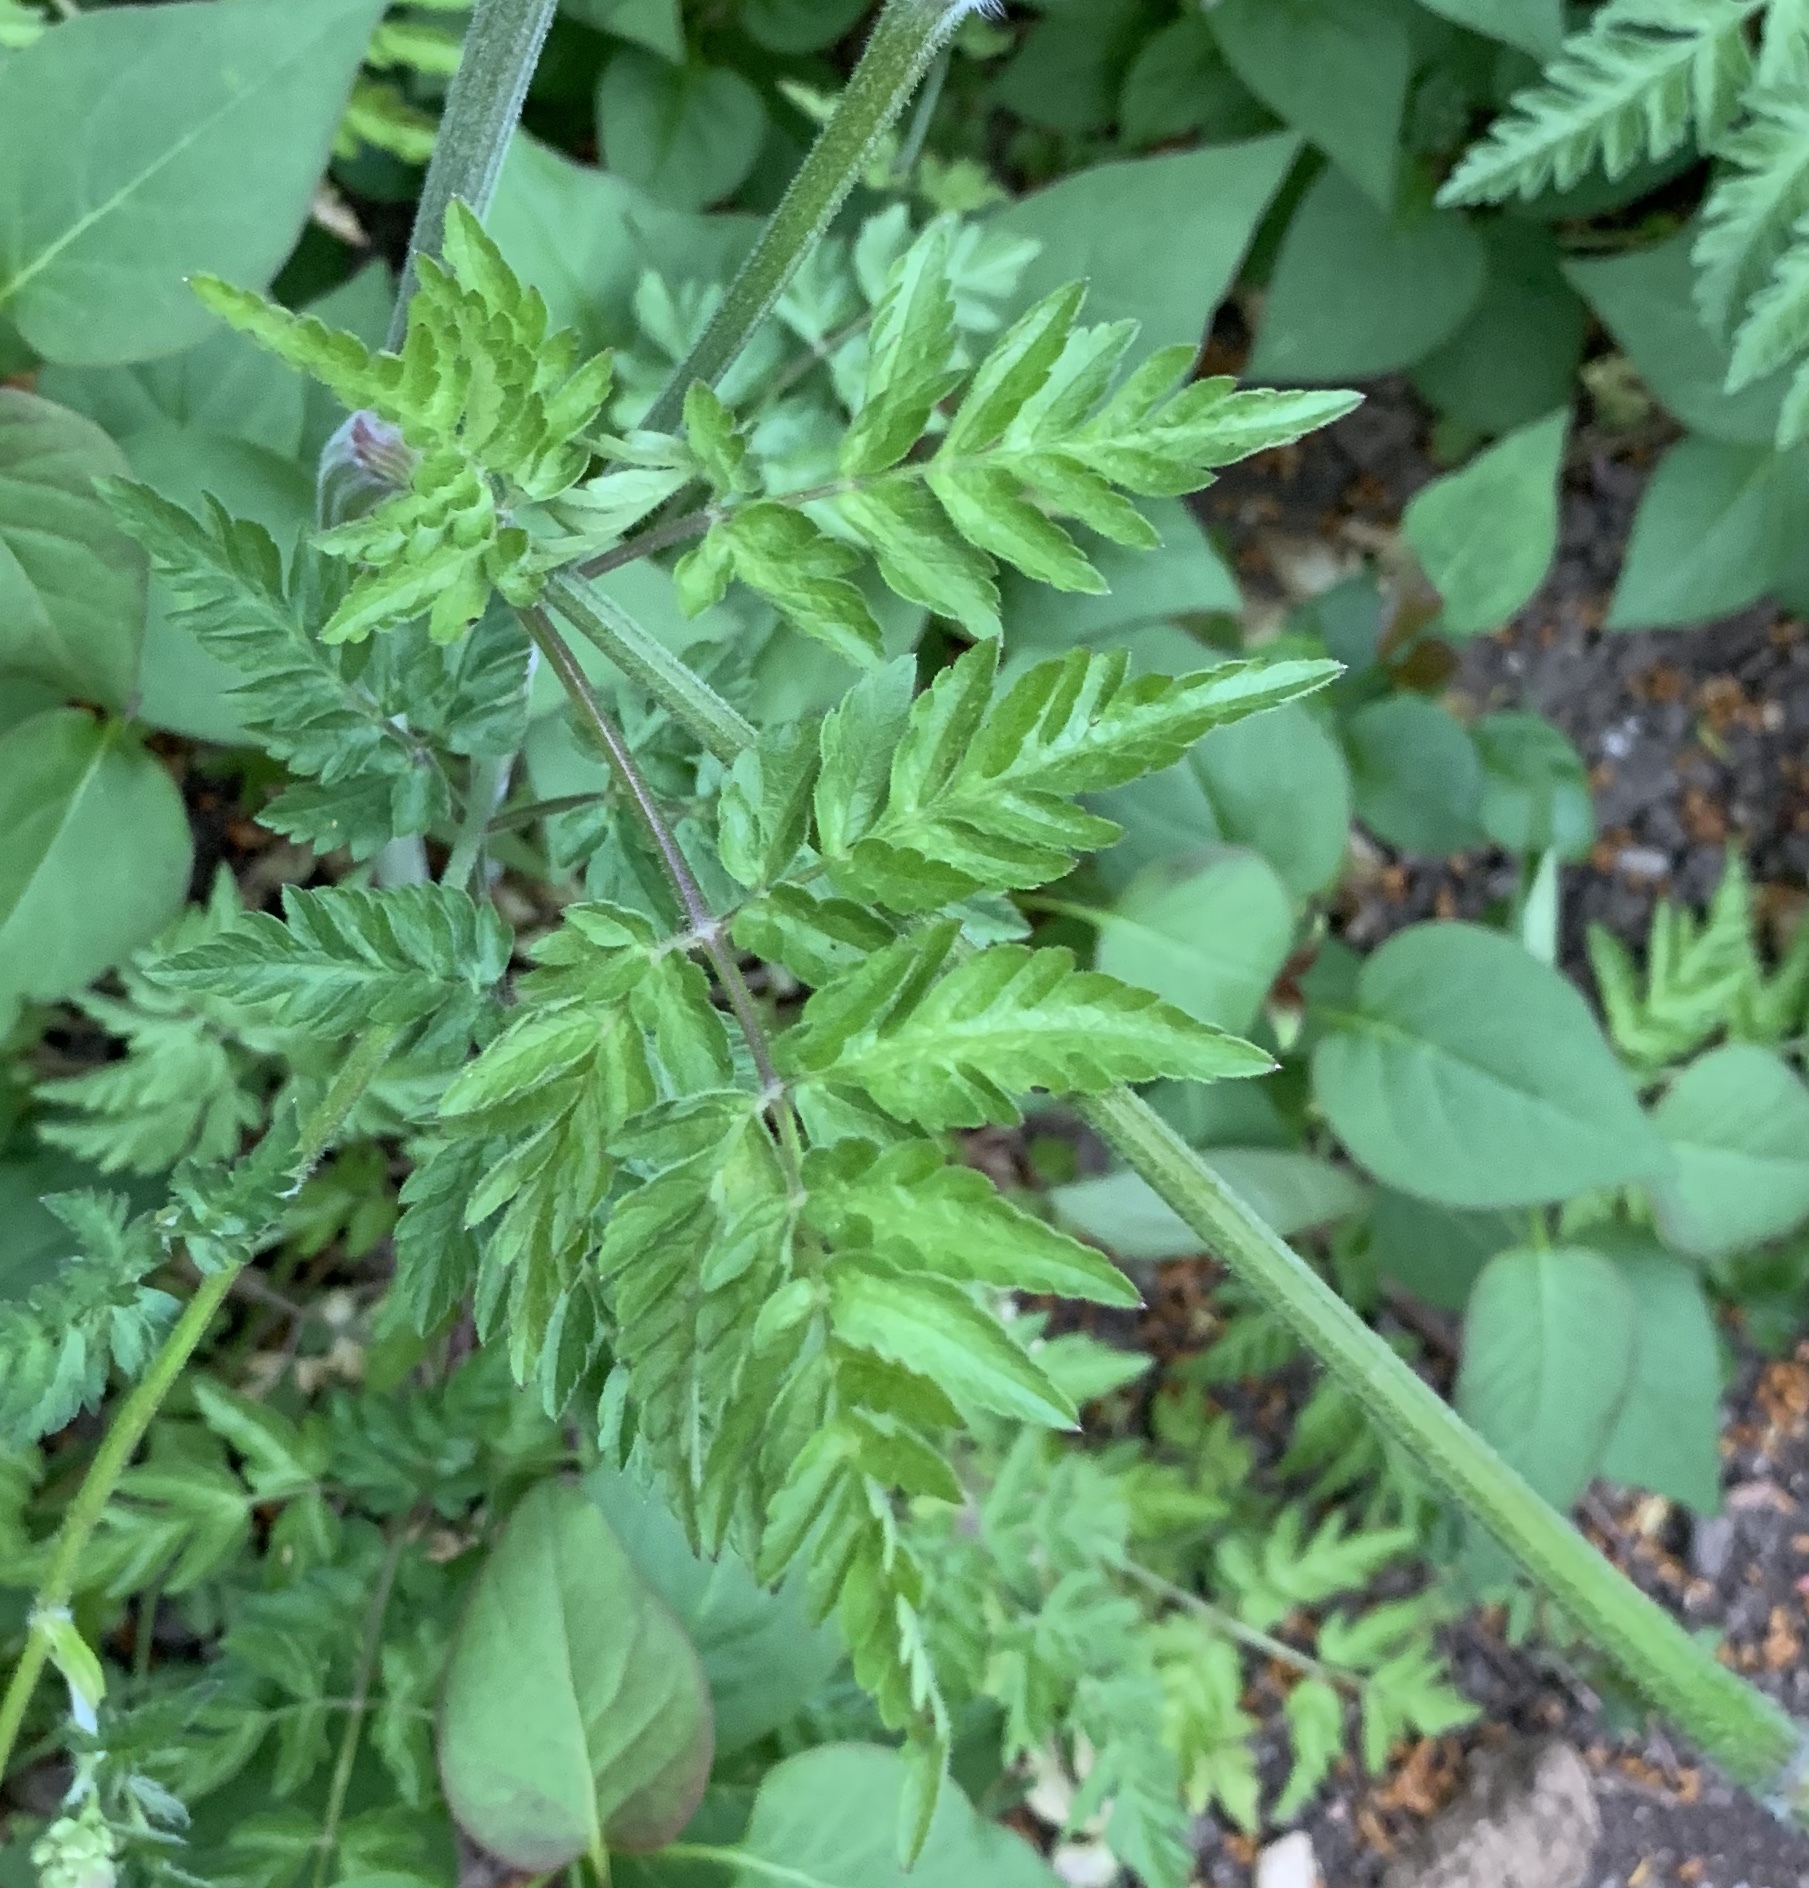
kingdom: Plantae
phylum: Tracheophyta
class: Magnoliopsida
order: Apiales
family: Apiaceae
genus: Anthriscus
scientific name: Anthriscus sylvestris
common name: Cow parsley
